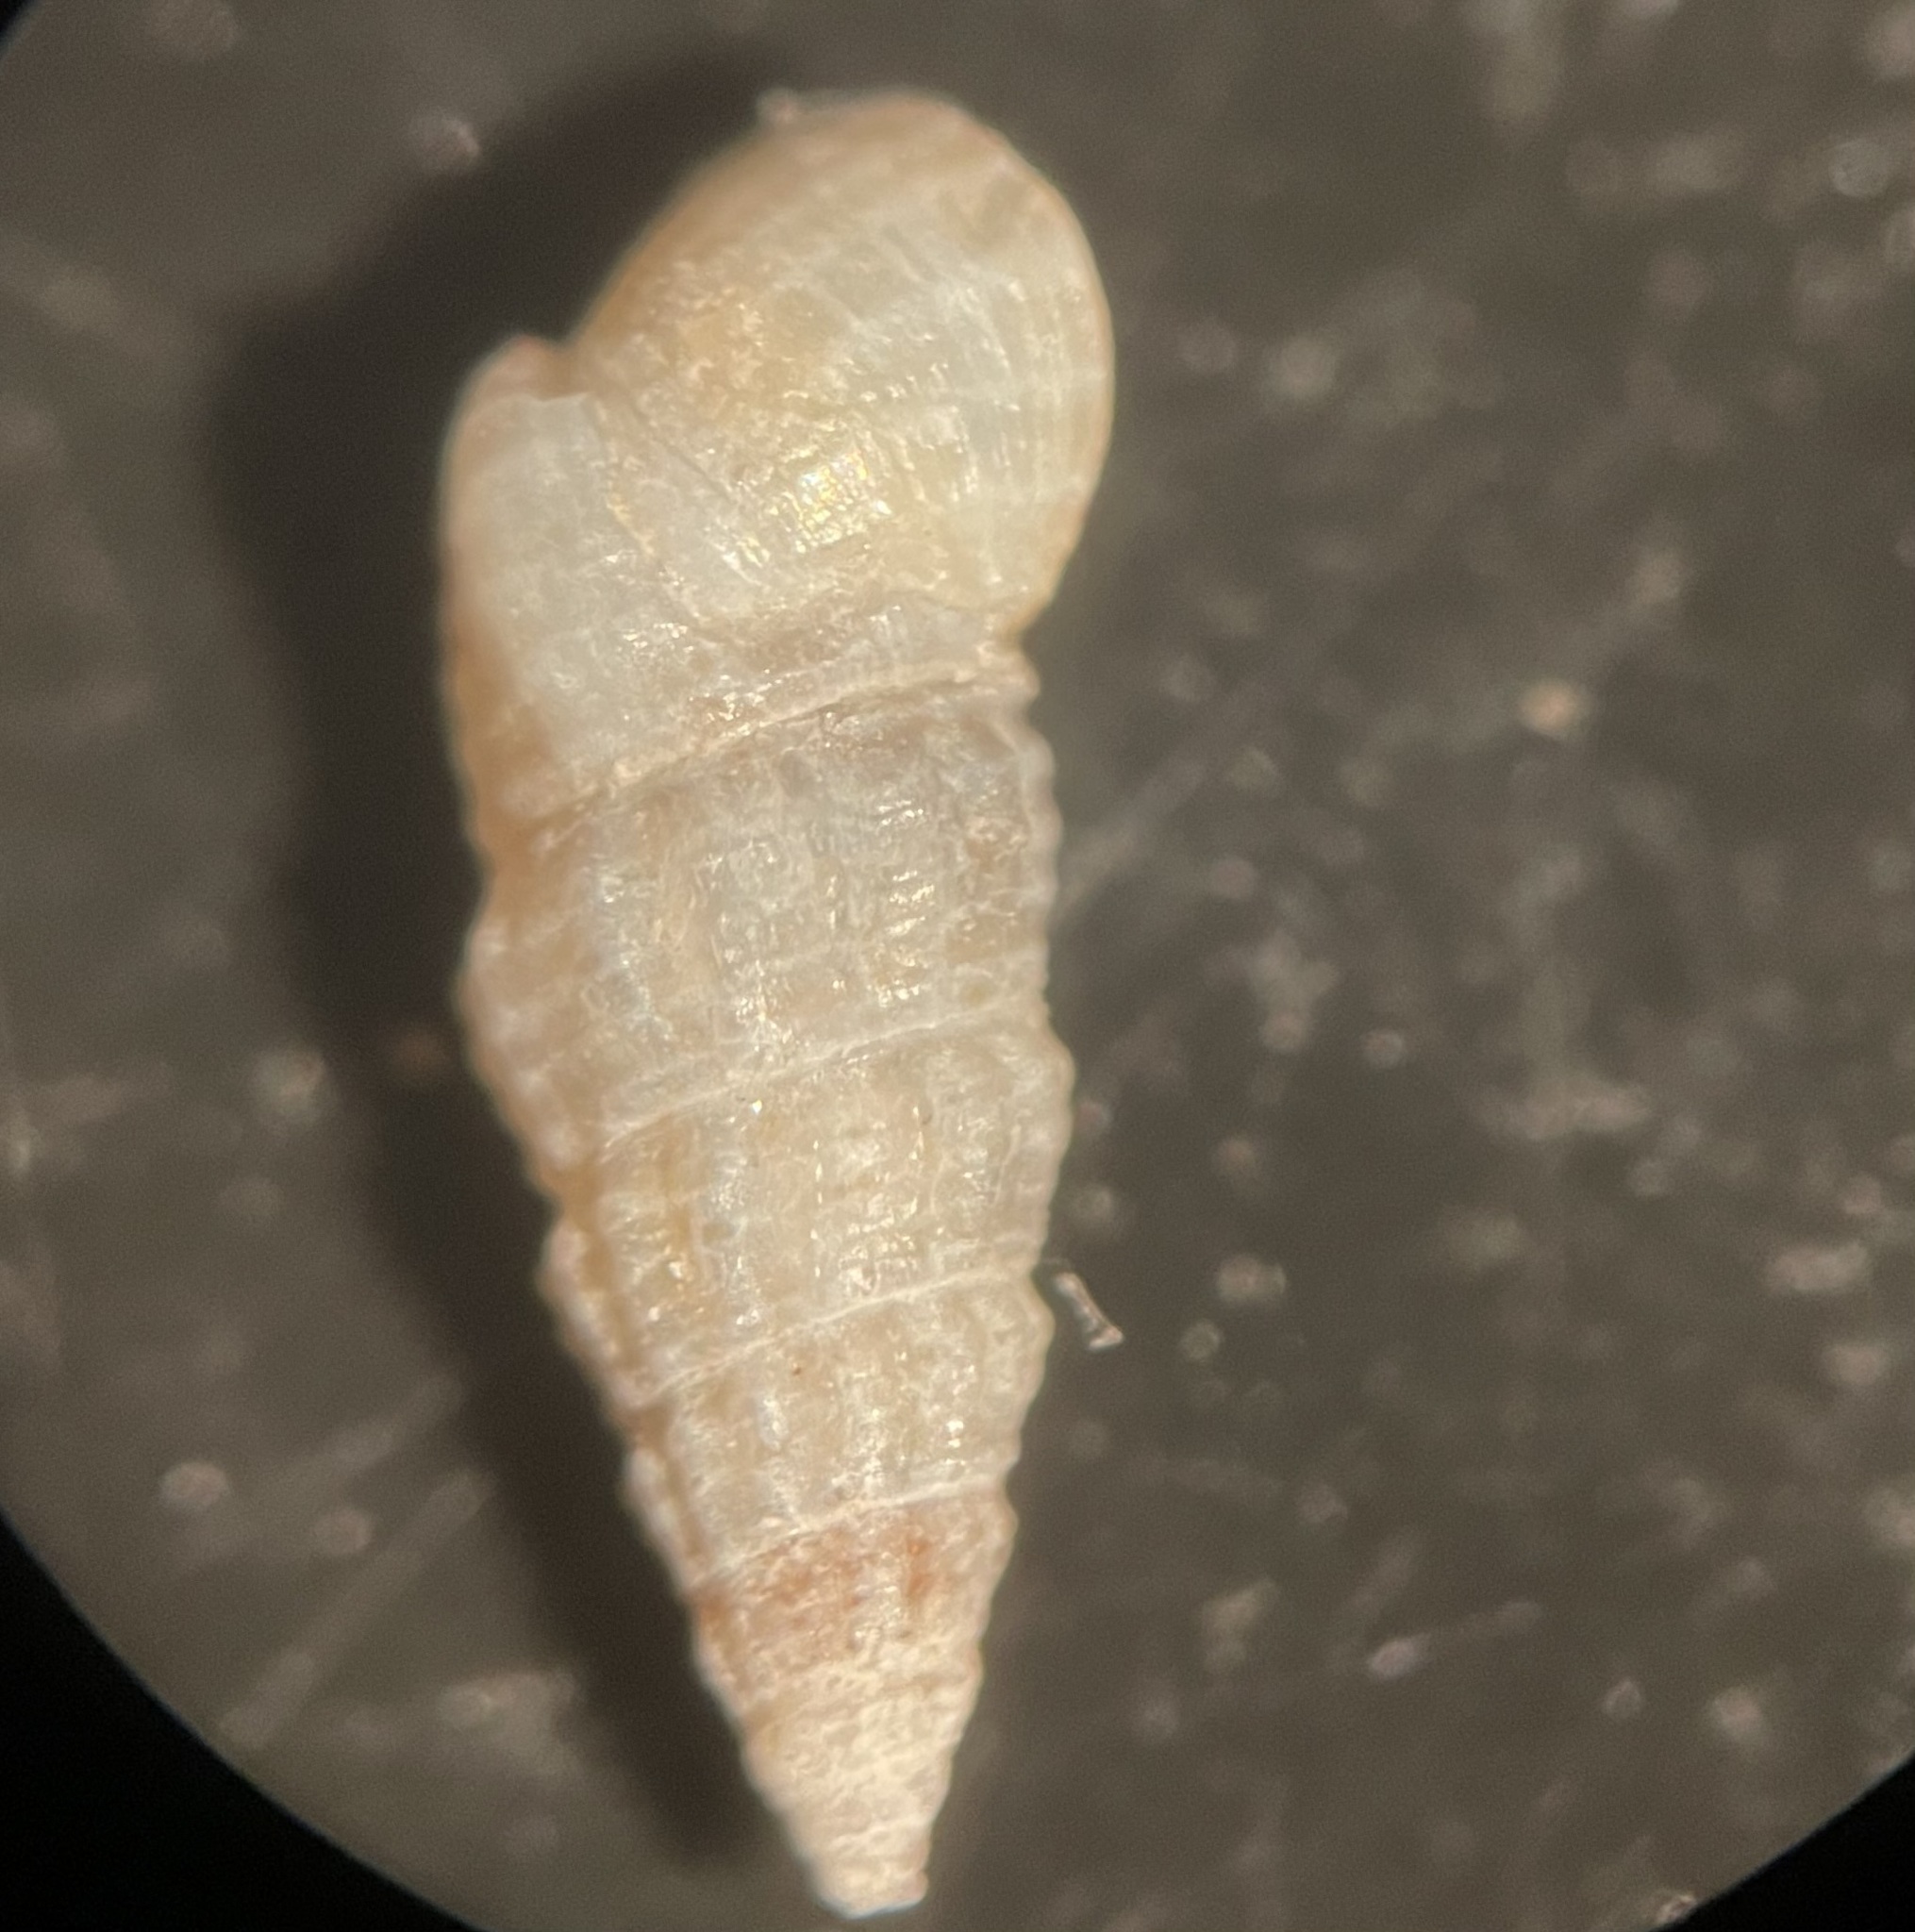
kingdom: Animalia
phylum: Mollusca
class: Gastropoda
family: Cerithiidae
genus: Bittiolum
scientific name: Bittiolum varium
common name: Grass cerith
